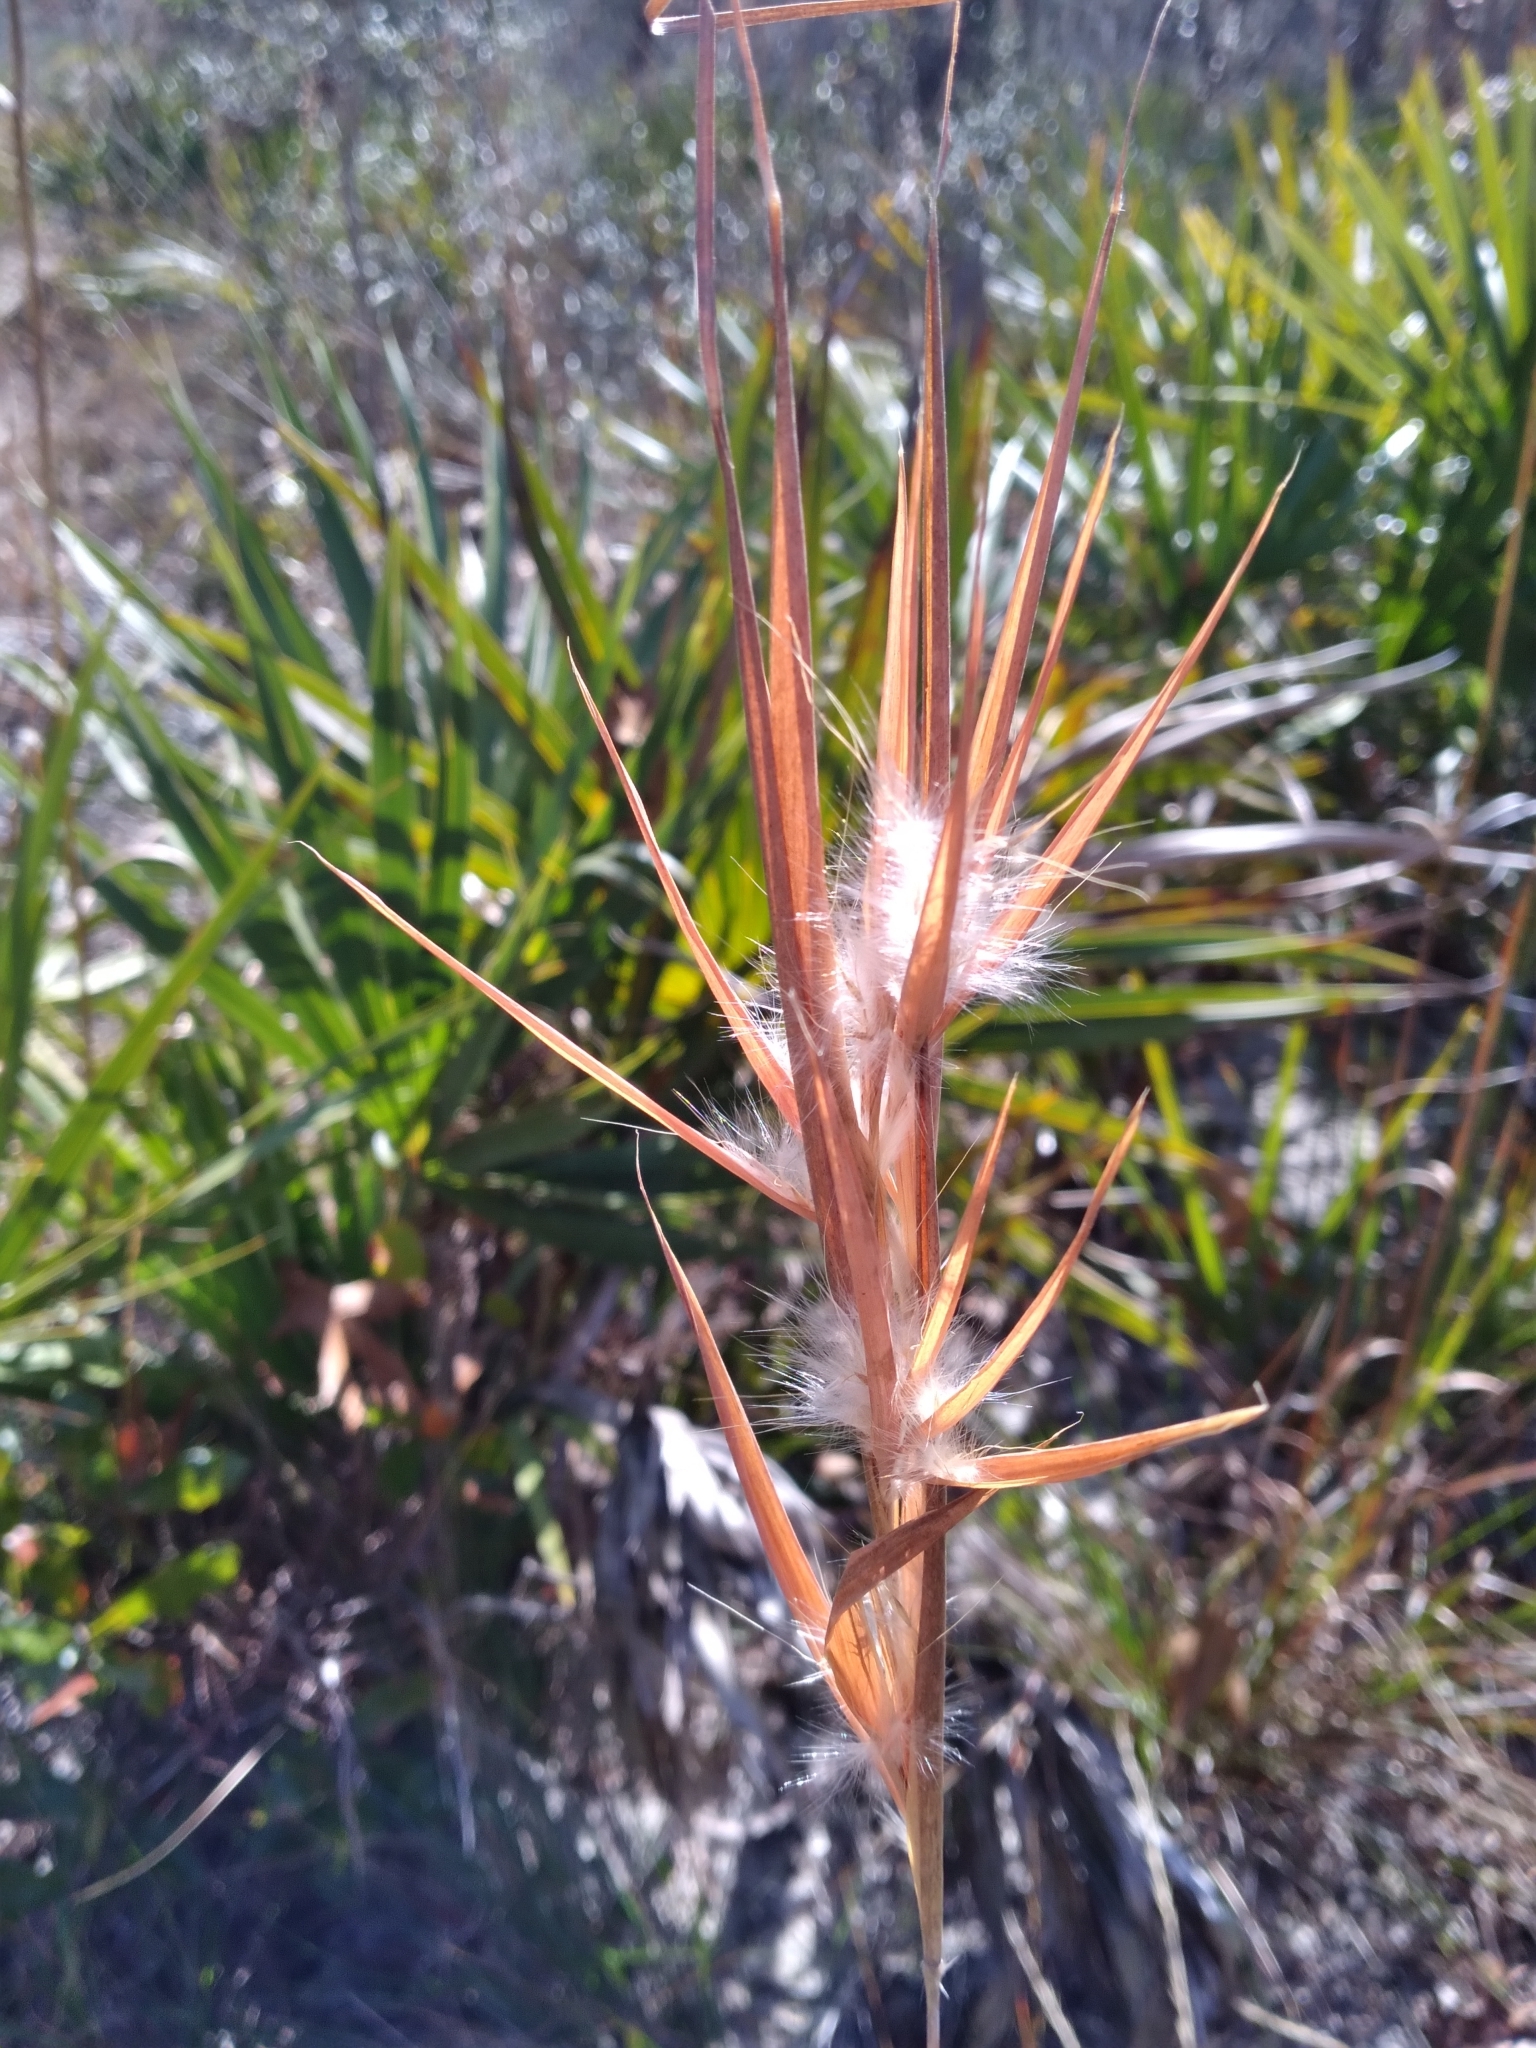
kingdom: Plantae
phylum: Tracheophyta
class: Liliopsida
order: Poales
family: Poaceae
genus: Andropogon
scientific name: Andropogon gyrans
